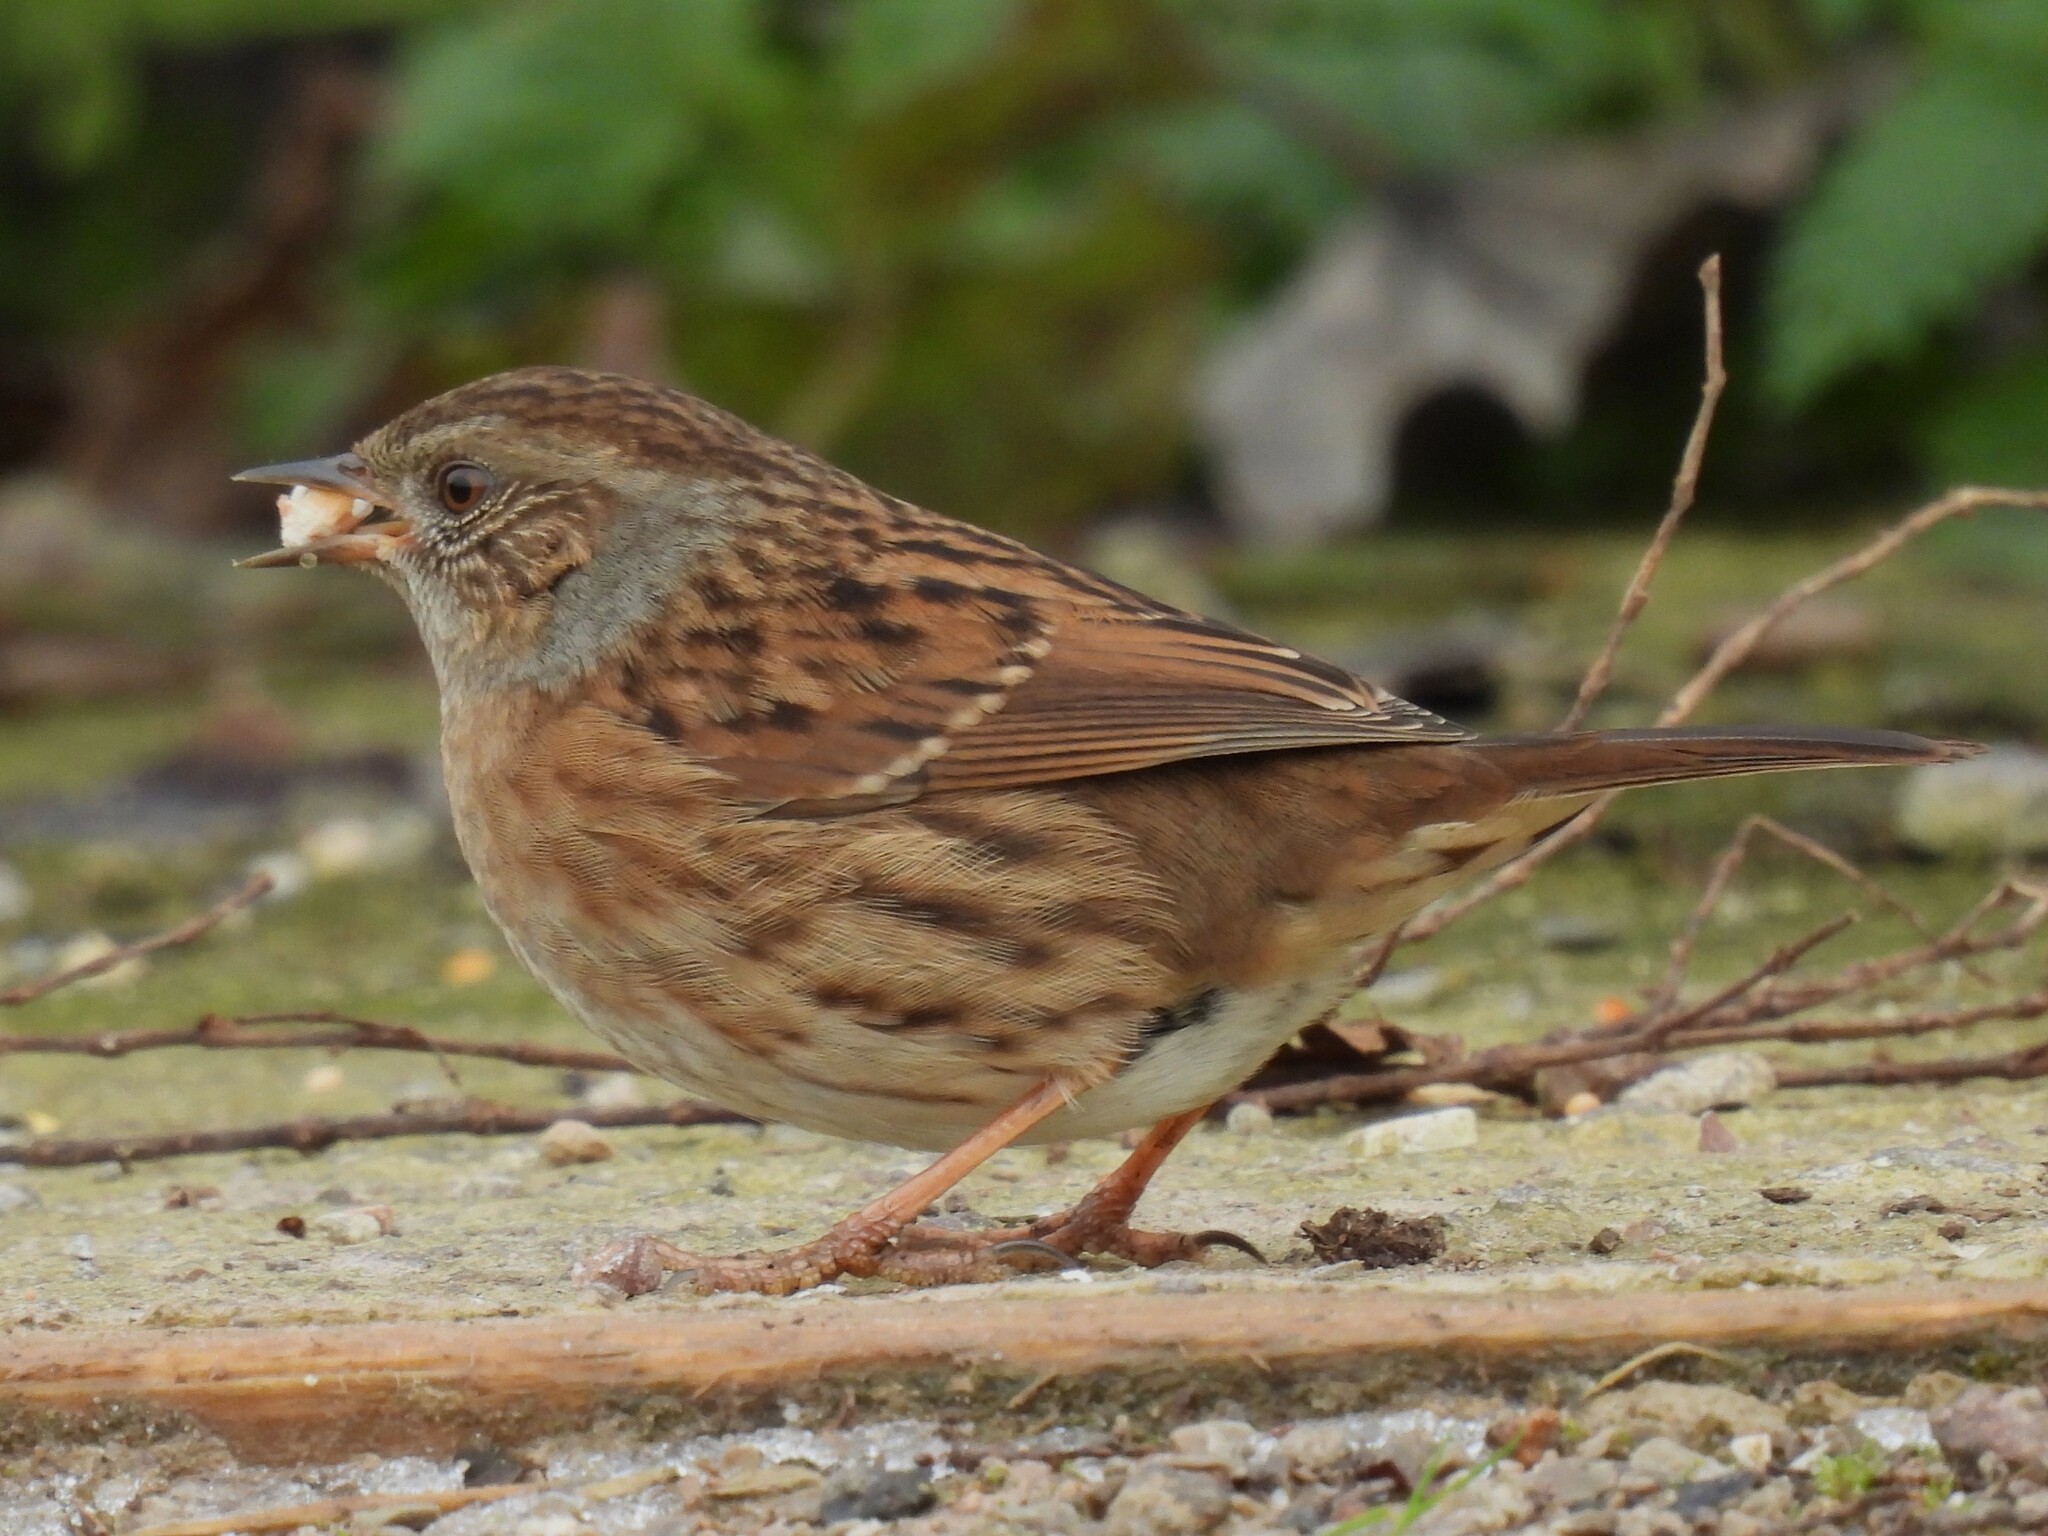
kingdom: Animalia
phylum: Chordata
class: Aves
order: Passeriformes
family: Prunellidae
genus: Prunella
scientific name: Prunella modularis
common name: Dunnock
